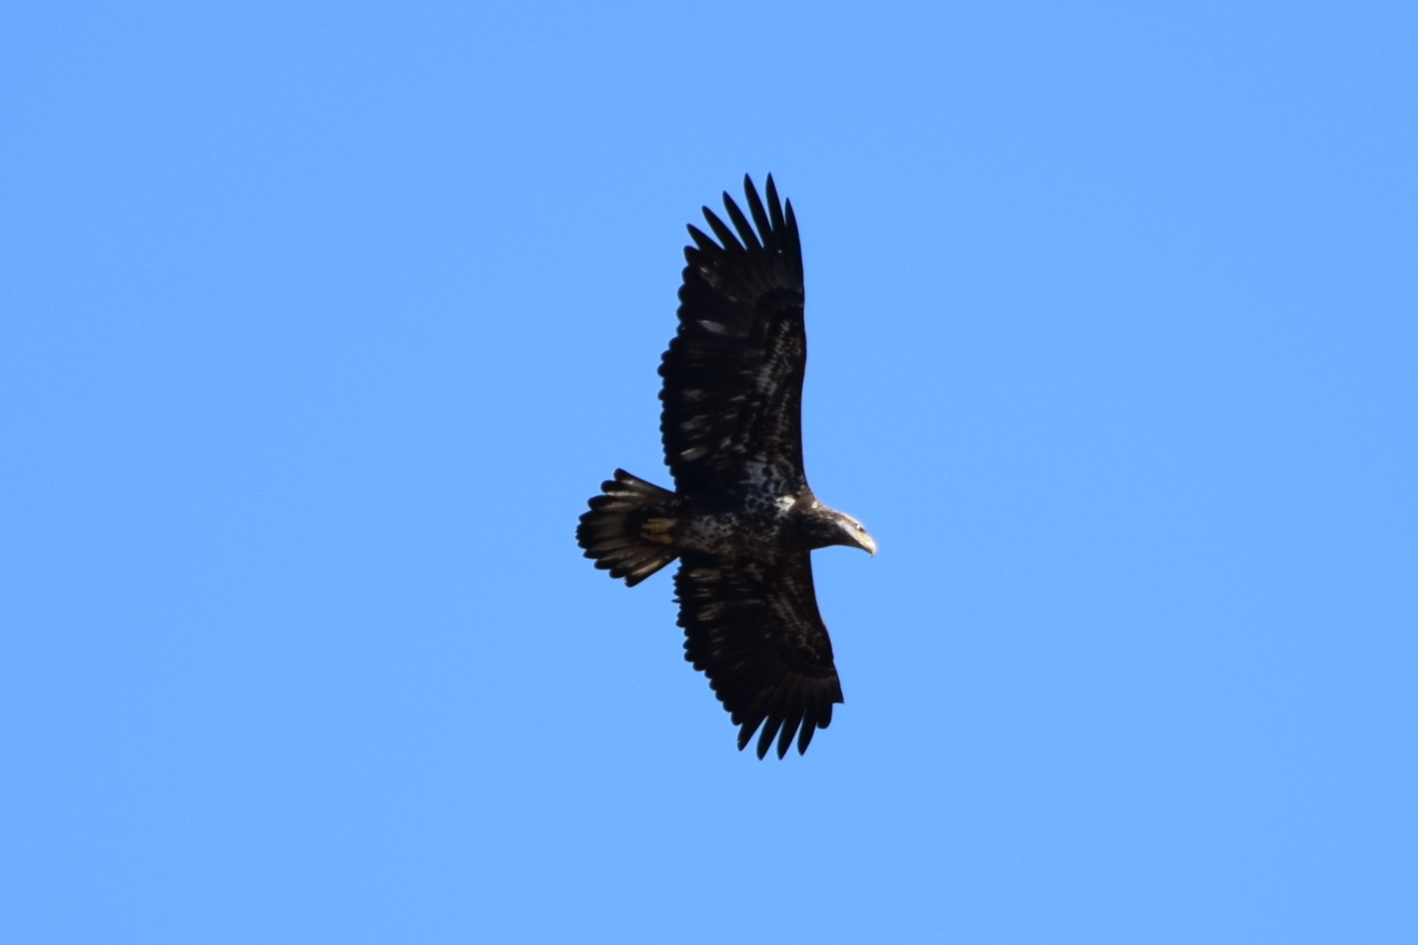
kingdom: Animalia
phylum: Chordata
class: Aves
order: Accipitriformes
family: Accipitridae
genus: Haliaeetus
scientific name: Haliaeetus leucocephalus
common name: Bald eagle
